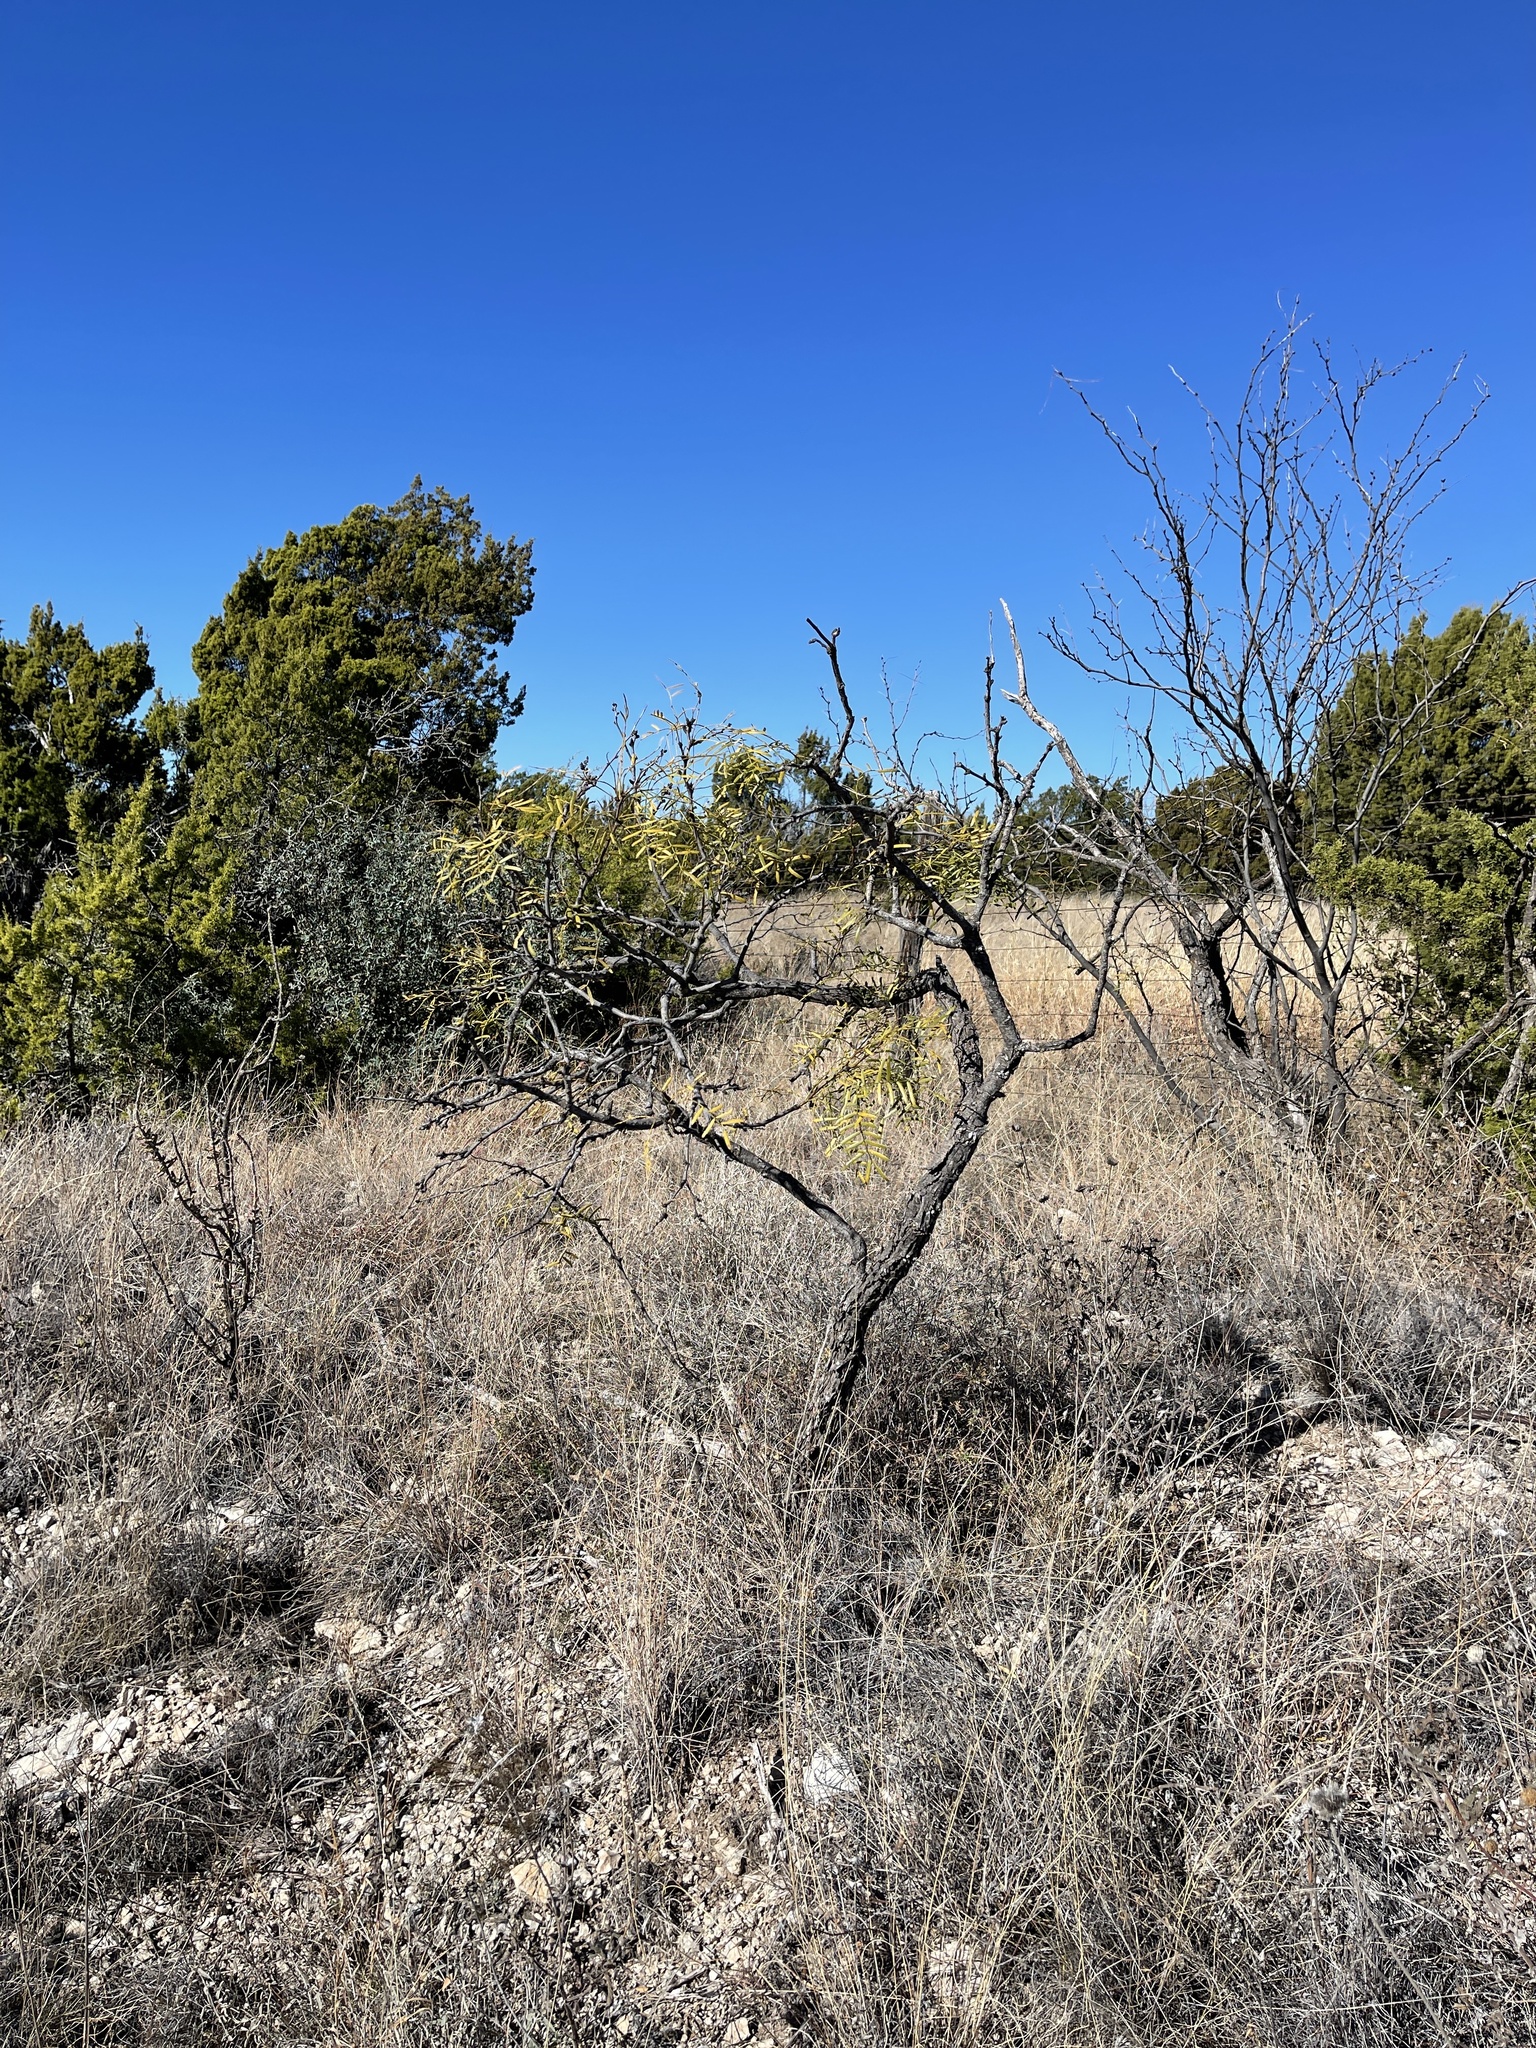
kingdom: Plantae
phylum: Tracheophyta
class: Magnoliopsida
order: Fabales
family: Fabaceae
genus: Prosopis
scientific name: Prosopis glandulosa
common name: Honey mesquite
